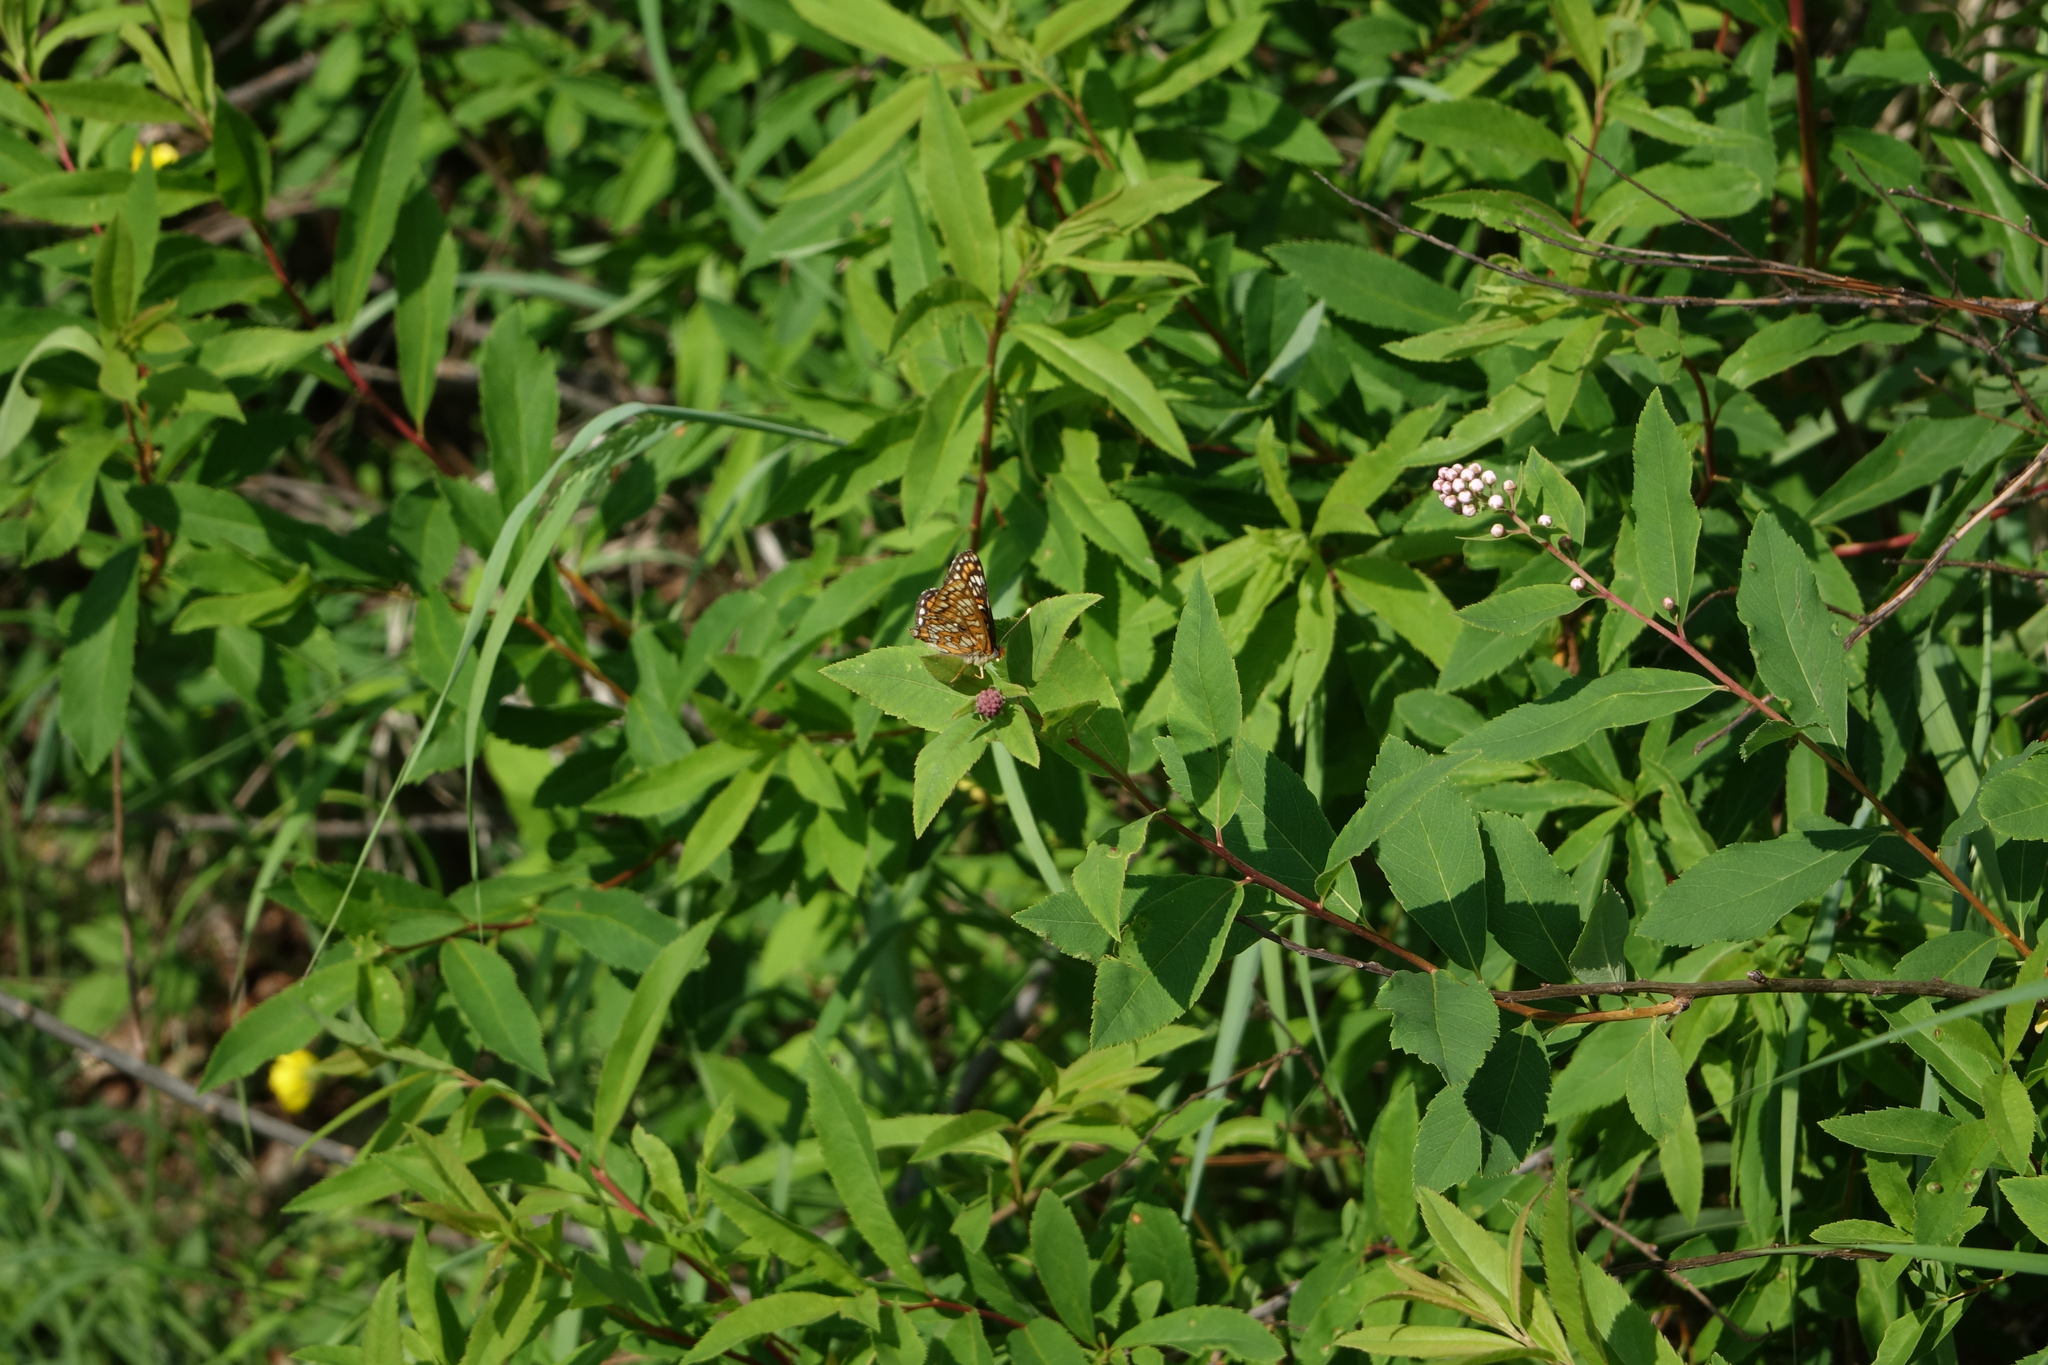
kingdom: Plantae
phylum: Tracheophyta
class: Magnoliopsida
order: Rosales
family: Rosaceae
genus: Spiraea
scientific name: Spiraea salicifolia
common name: Bridewort
